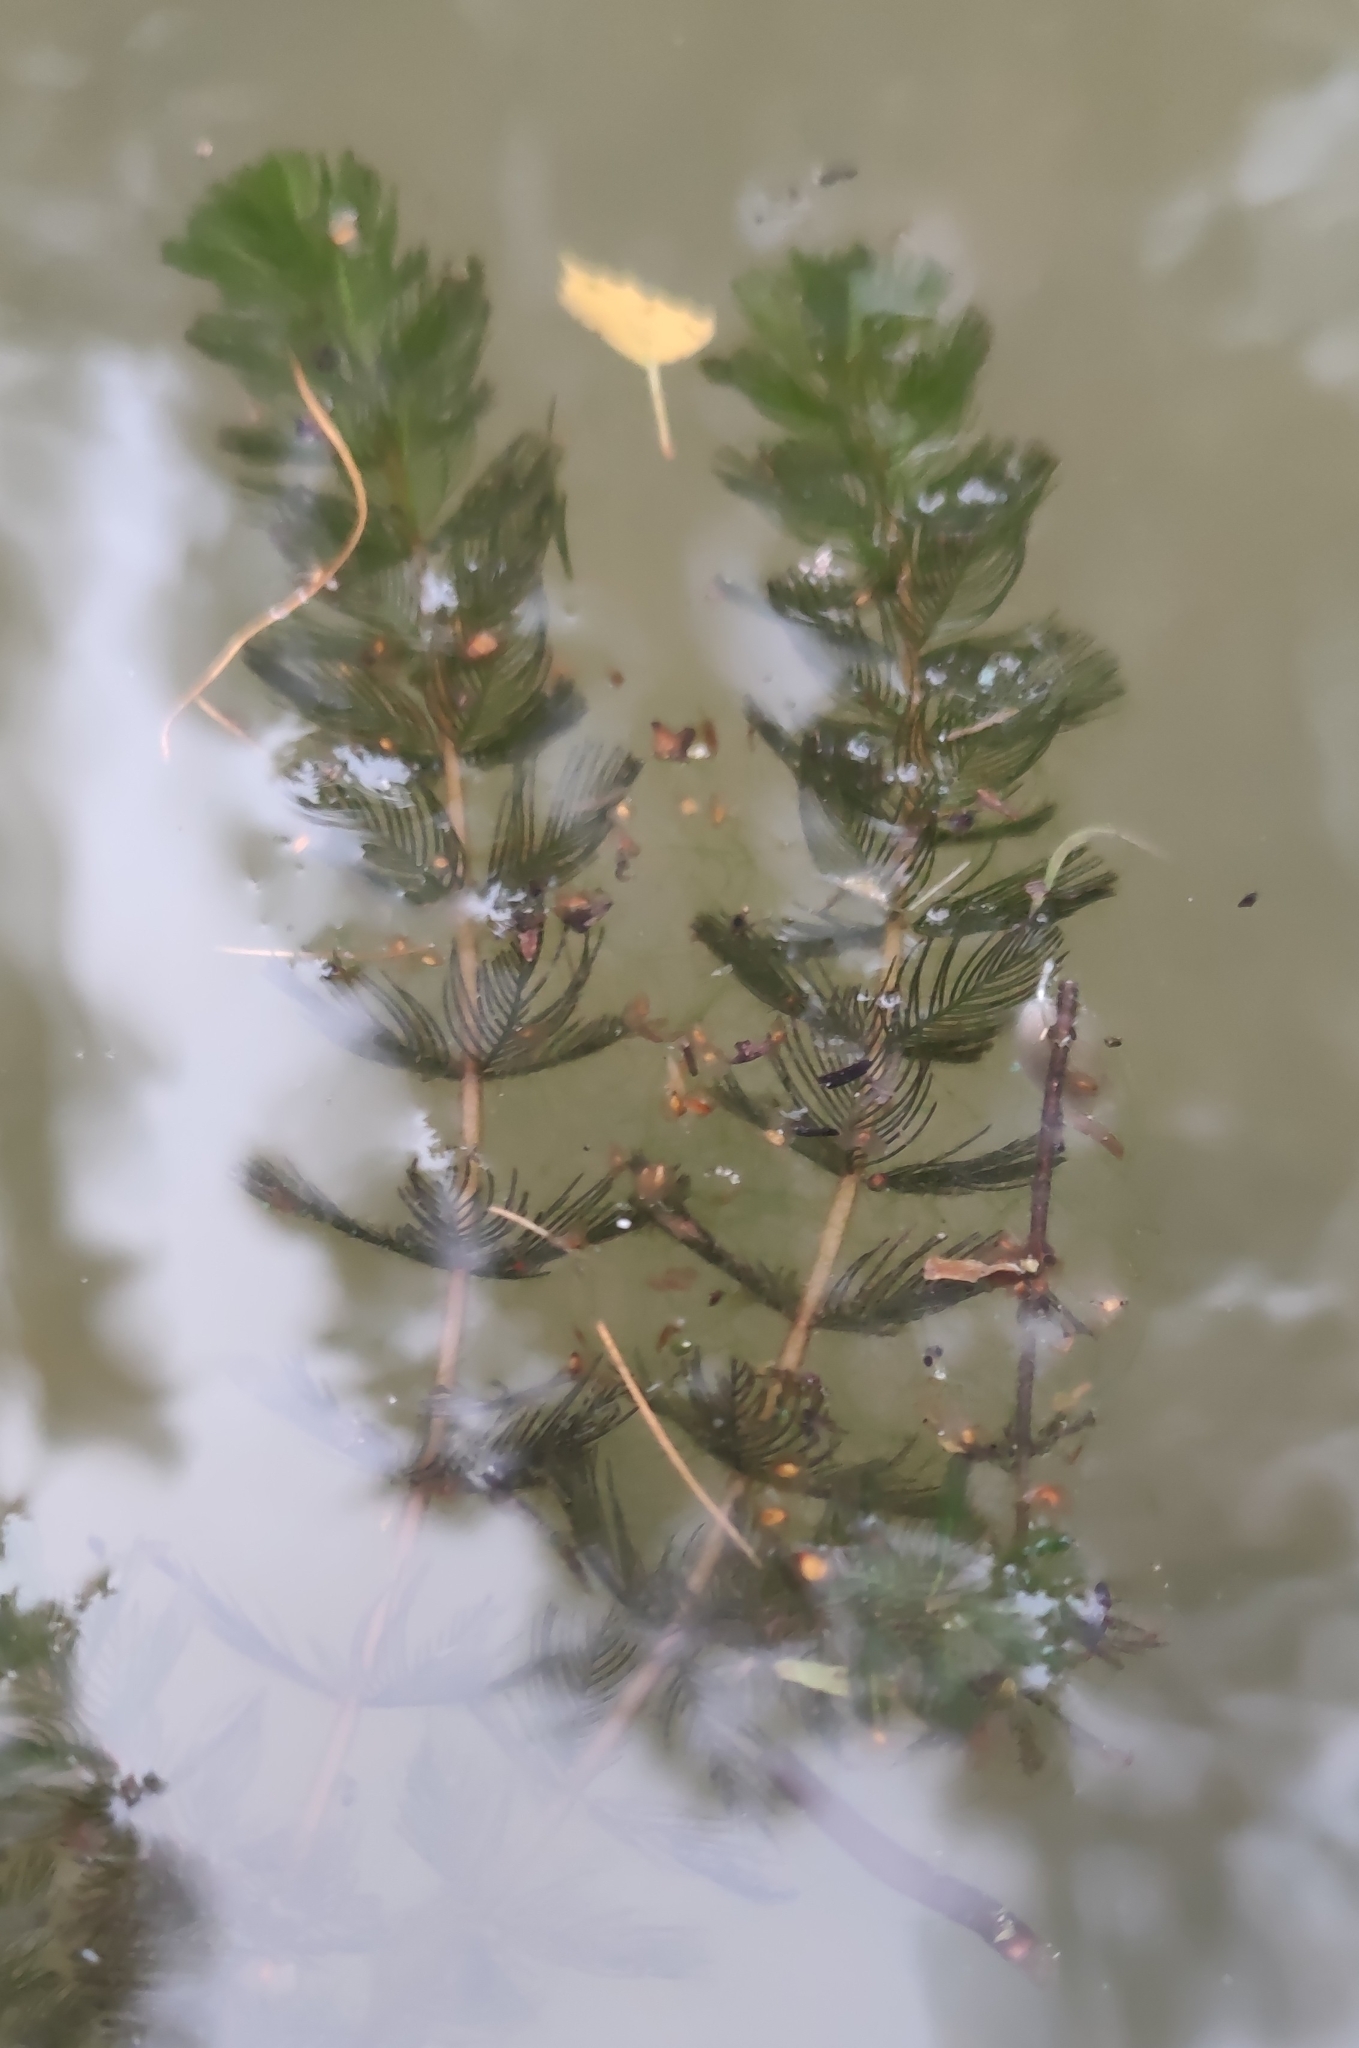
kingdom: Plantae
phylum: Tracheophyta
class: Magnoliopsida
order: Saxifragales
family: Haloragaceae
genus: Myriophyllum
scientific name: Myriophyllum spicatum
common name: Spiked water-milfoil
